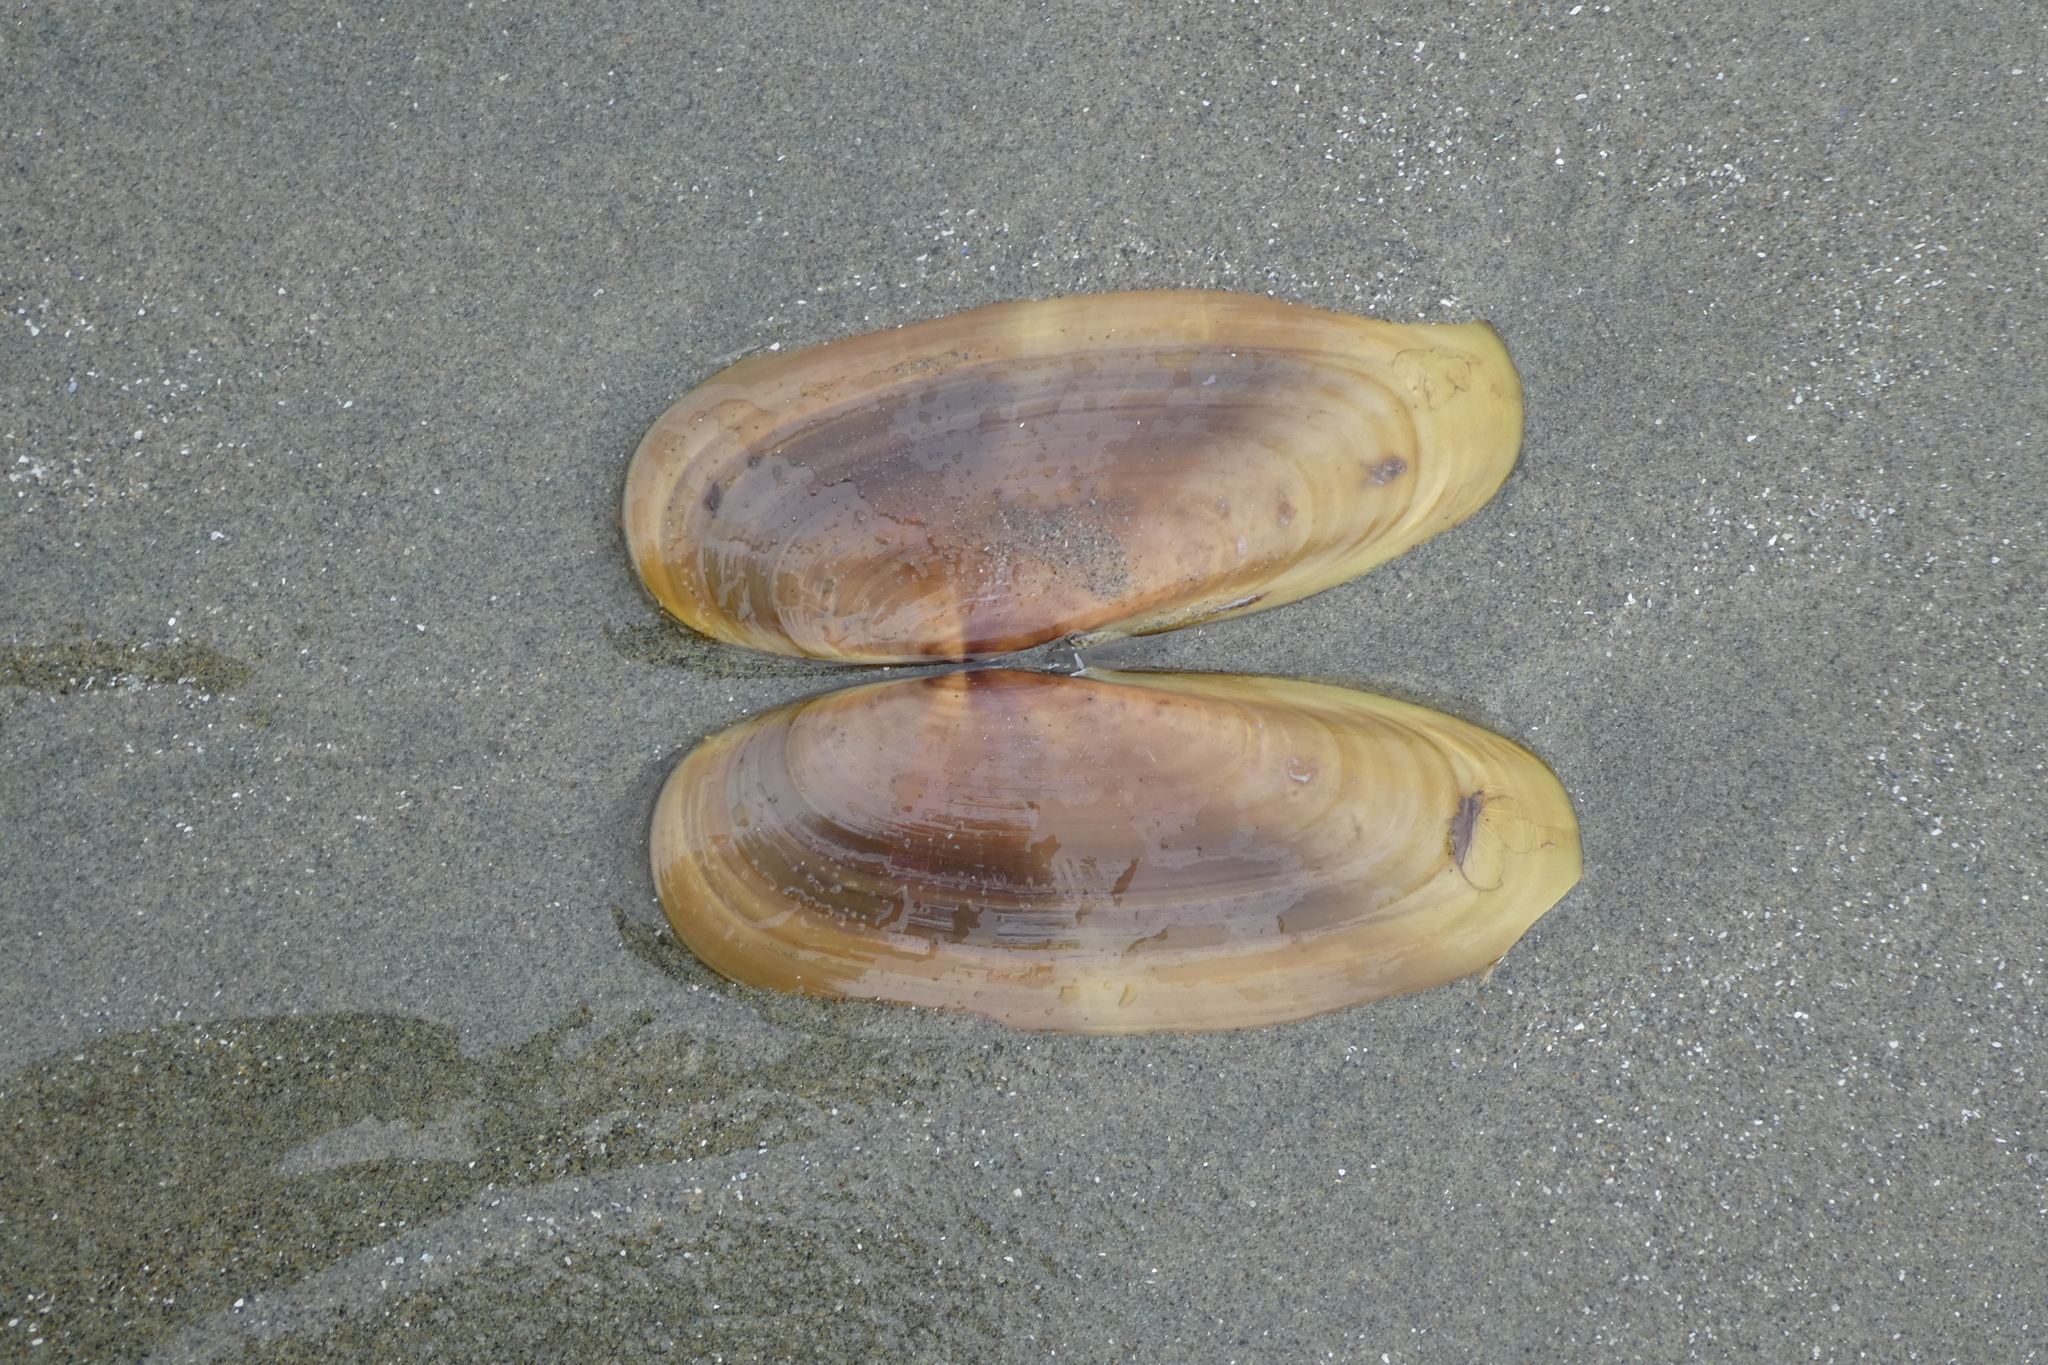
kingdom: Animalia
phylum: Mollusca
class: Bivalvia
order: Adapedonta
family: Pharidae
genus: Siliqua
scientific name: Siliqua patula
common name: Pacific razor clam
